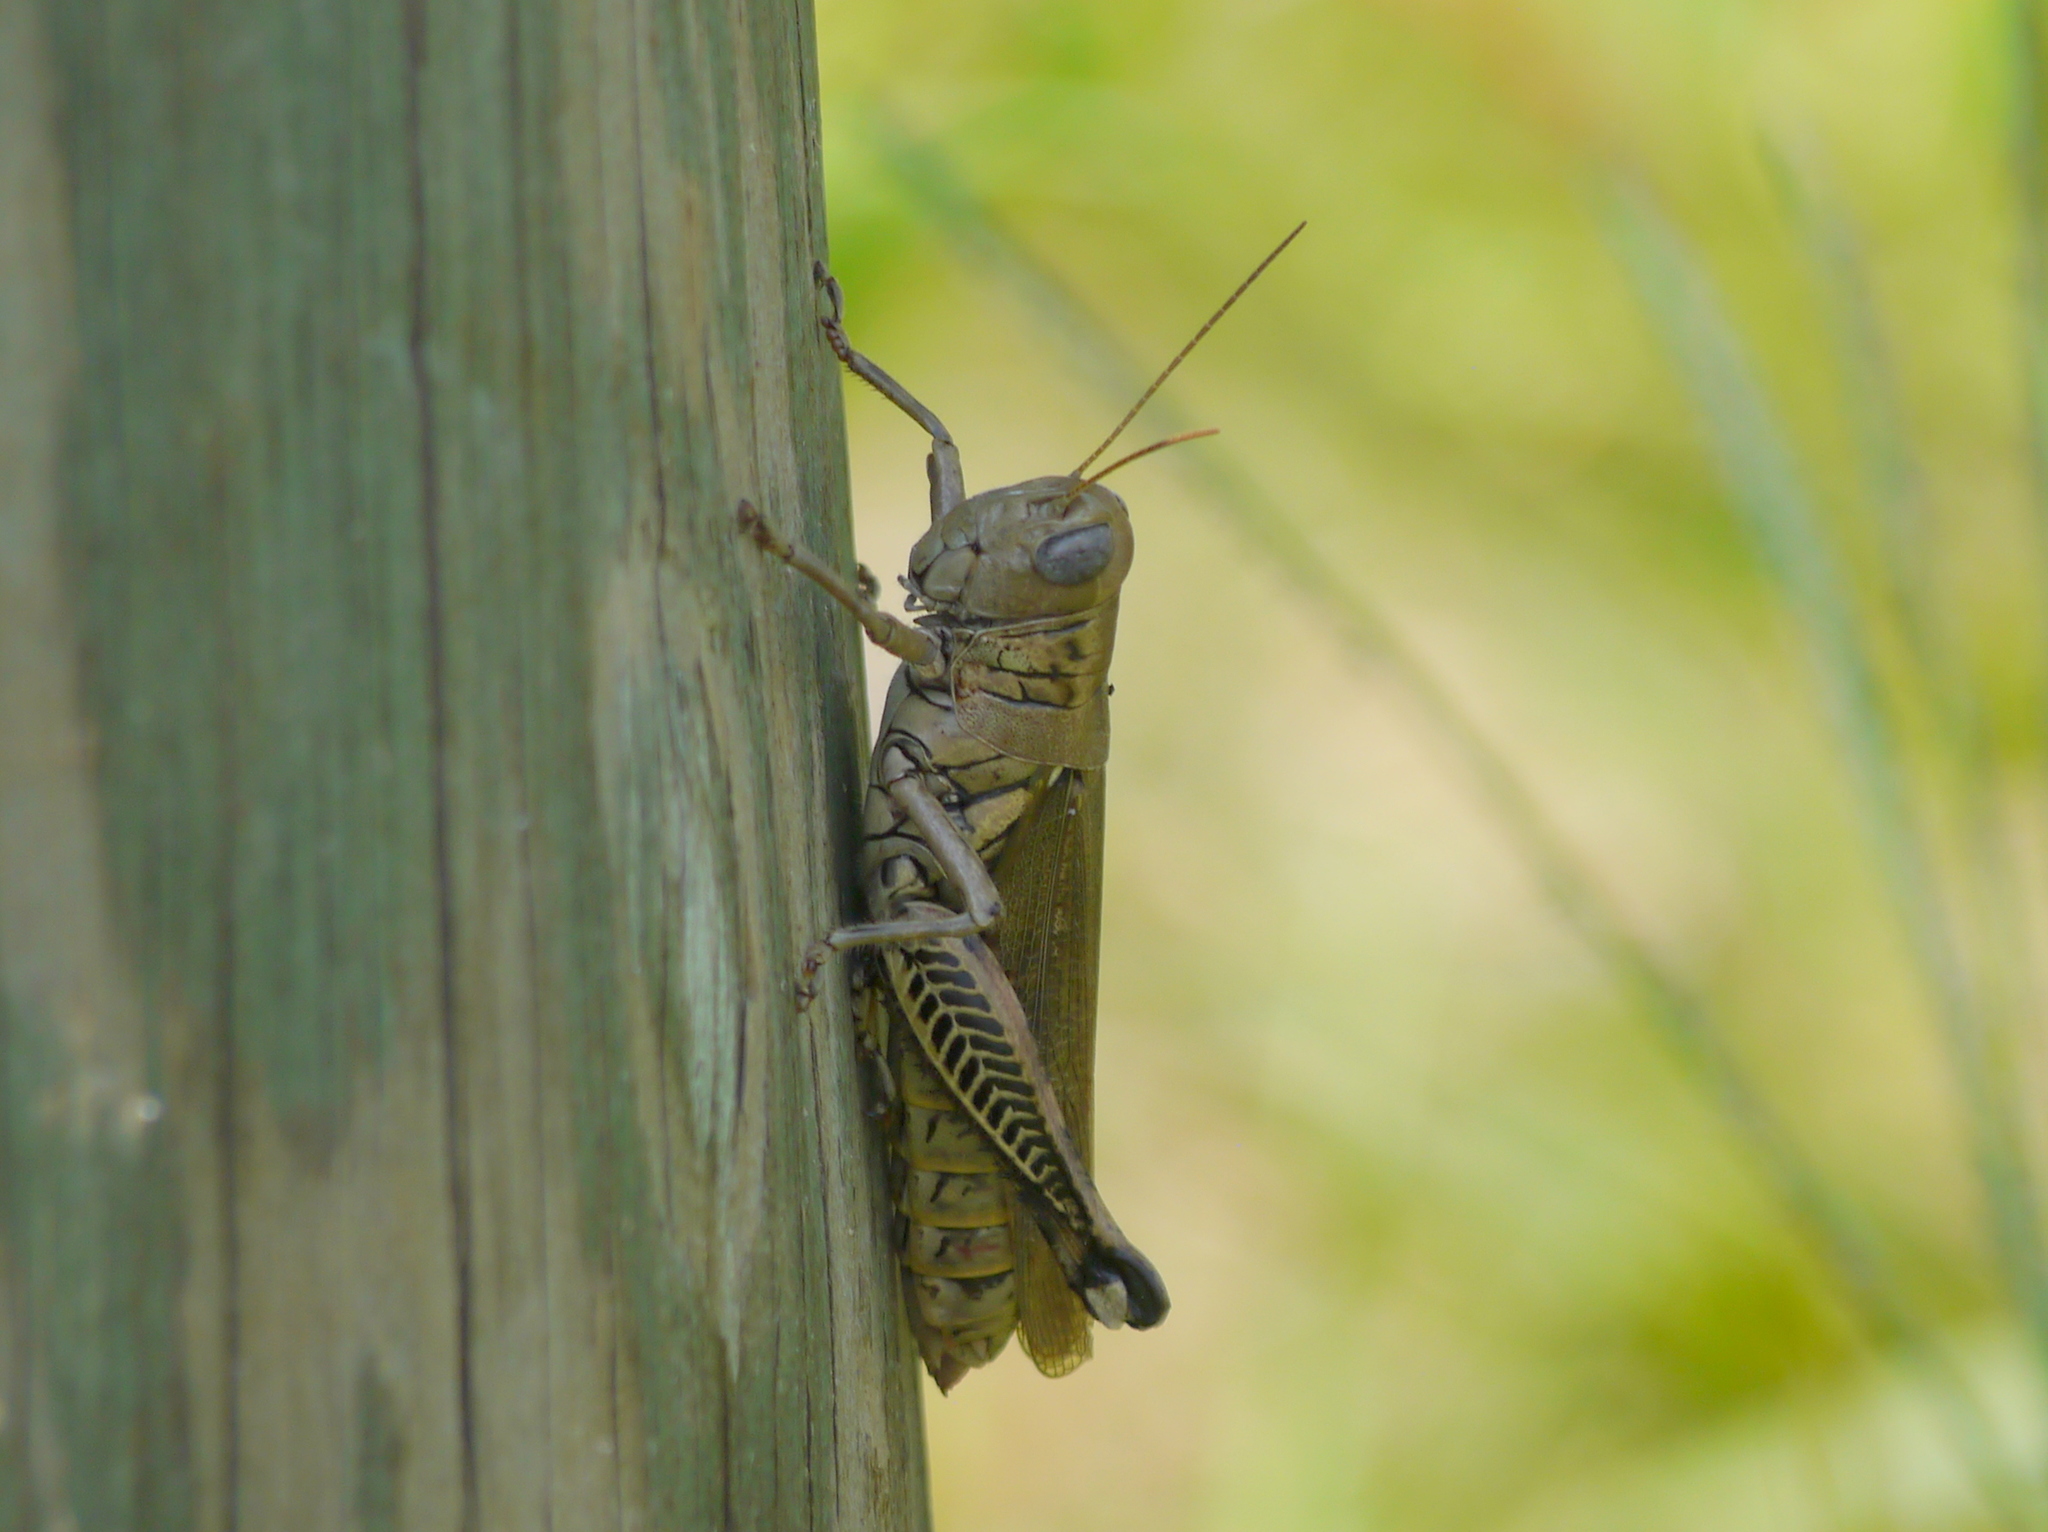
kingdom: Animalia
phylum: Arthropoda
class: Insecta
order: Orthoptera
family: Acrididae
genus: Melanoplus
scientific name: Melanoplus differentialis
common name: Differential grasshopper
